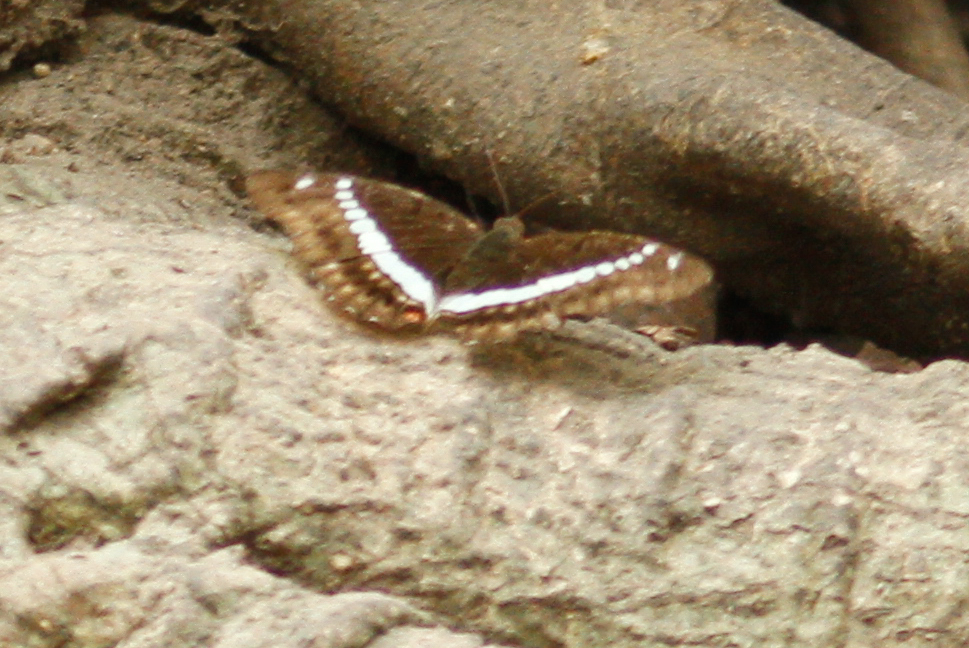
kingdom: Animalia
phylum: Arthropoda
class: Insecta
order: Lepidoptera
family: Nymphalidae
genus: Euthalia
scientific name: Euthalia recta
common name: Redtail marquis
